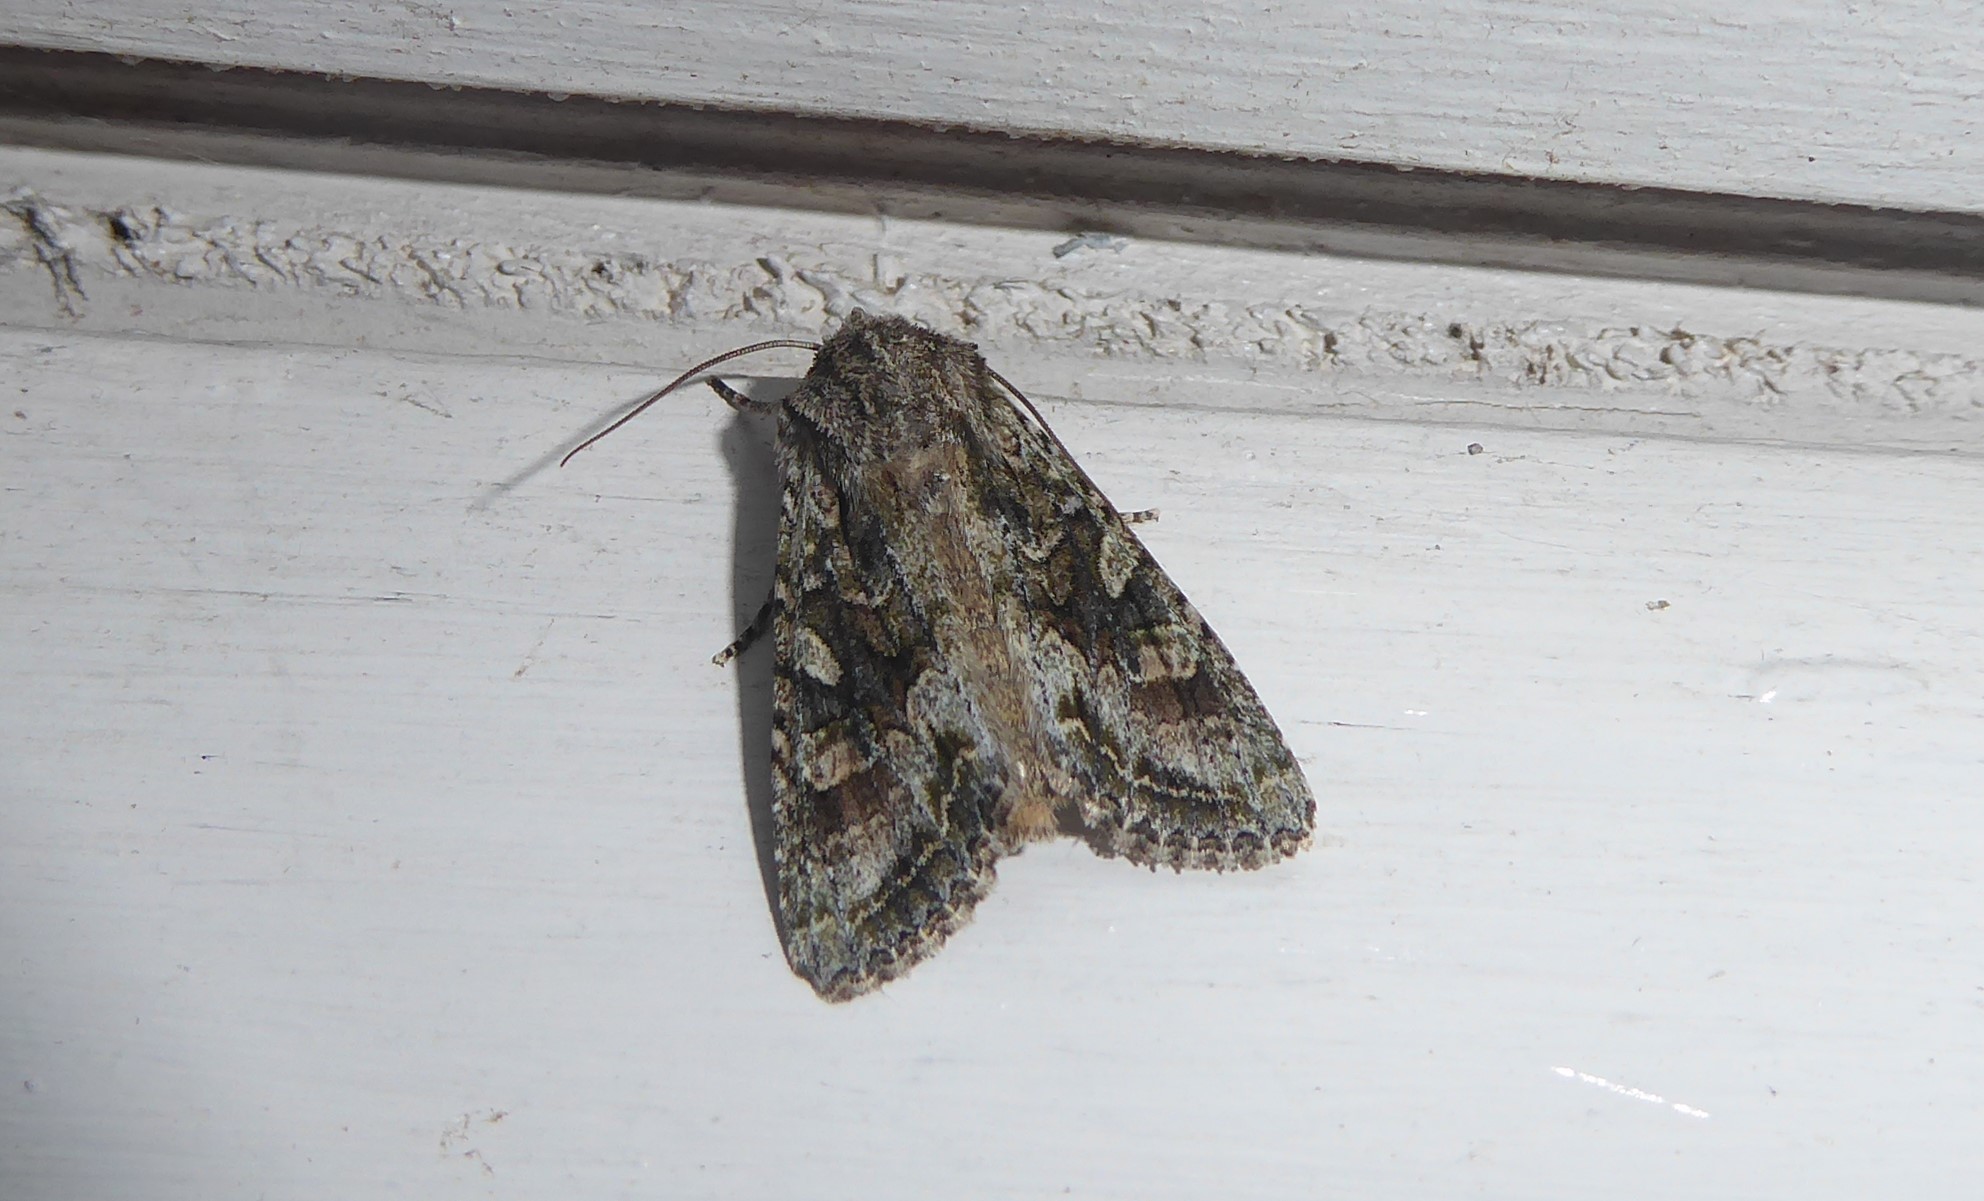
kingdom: Animalia
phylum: Arthropoda
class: Insecta
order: Lepidoptera
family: Noctuidae
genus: Ichneutica
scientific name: Ichneutica mutans
